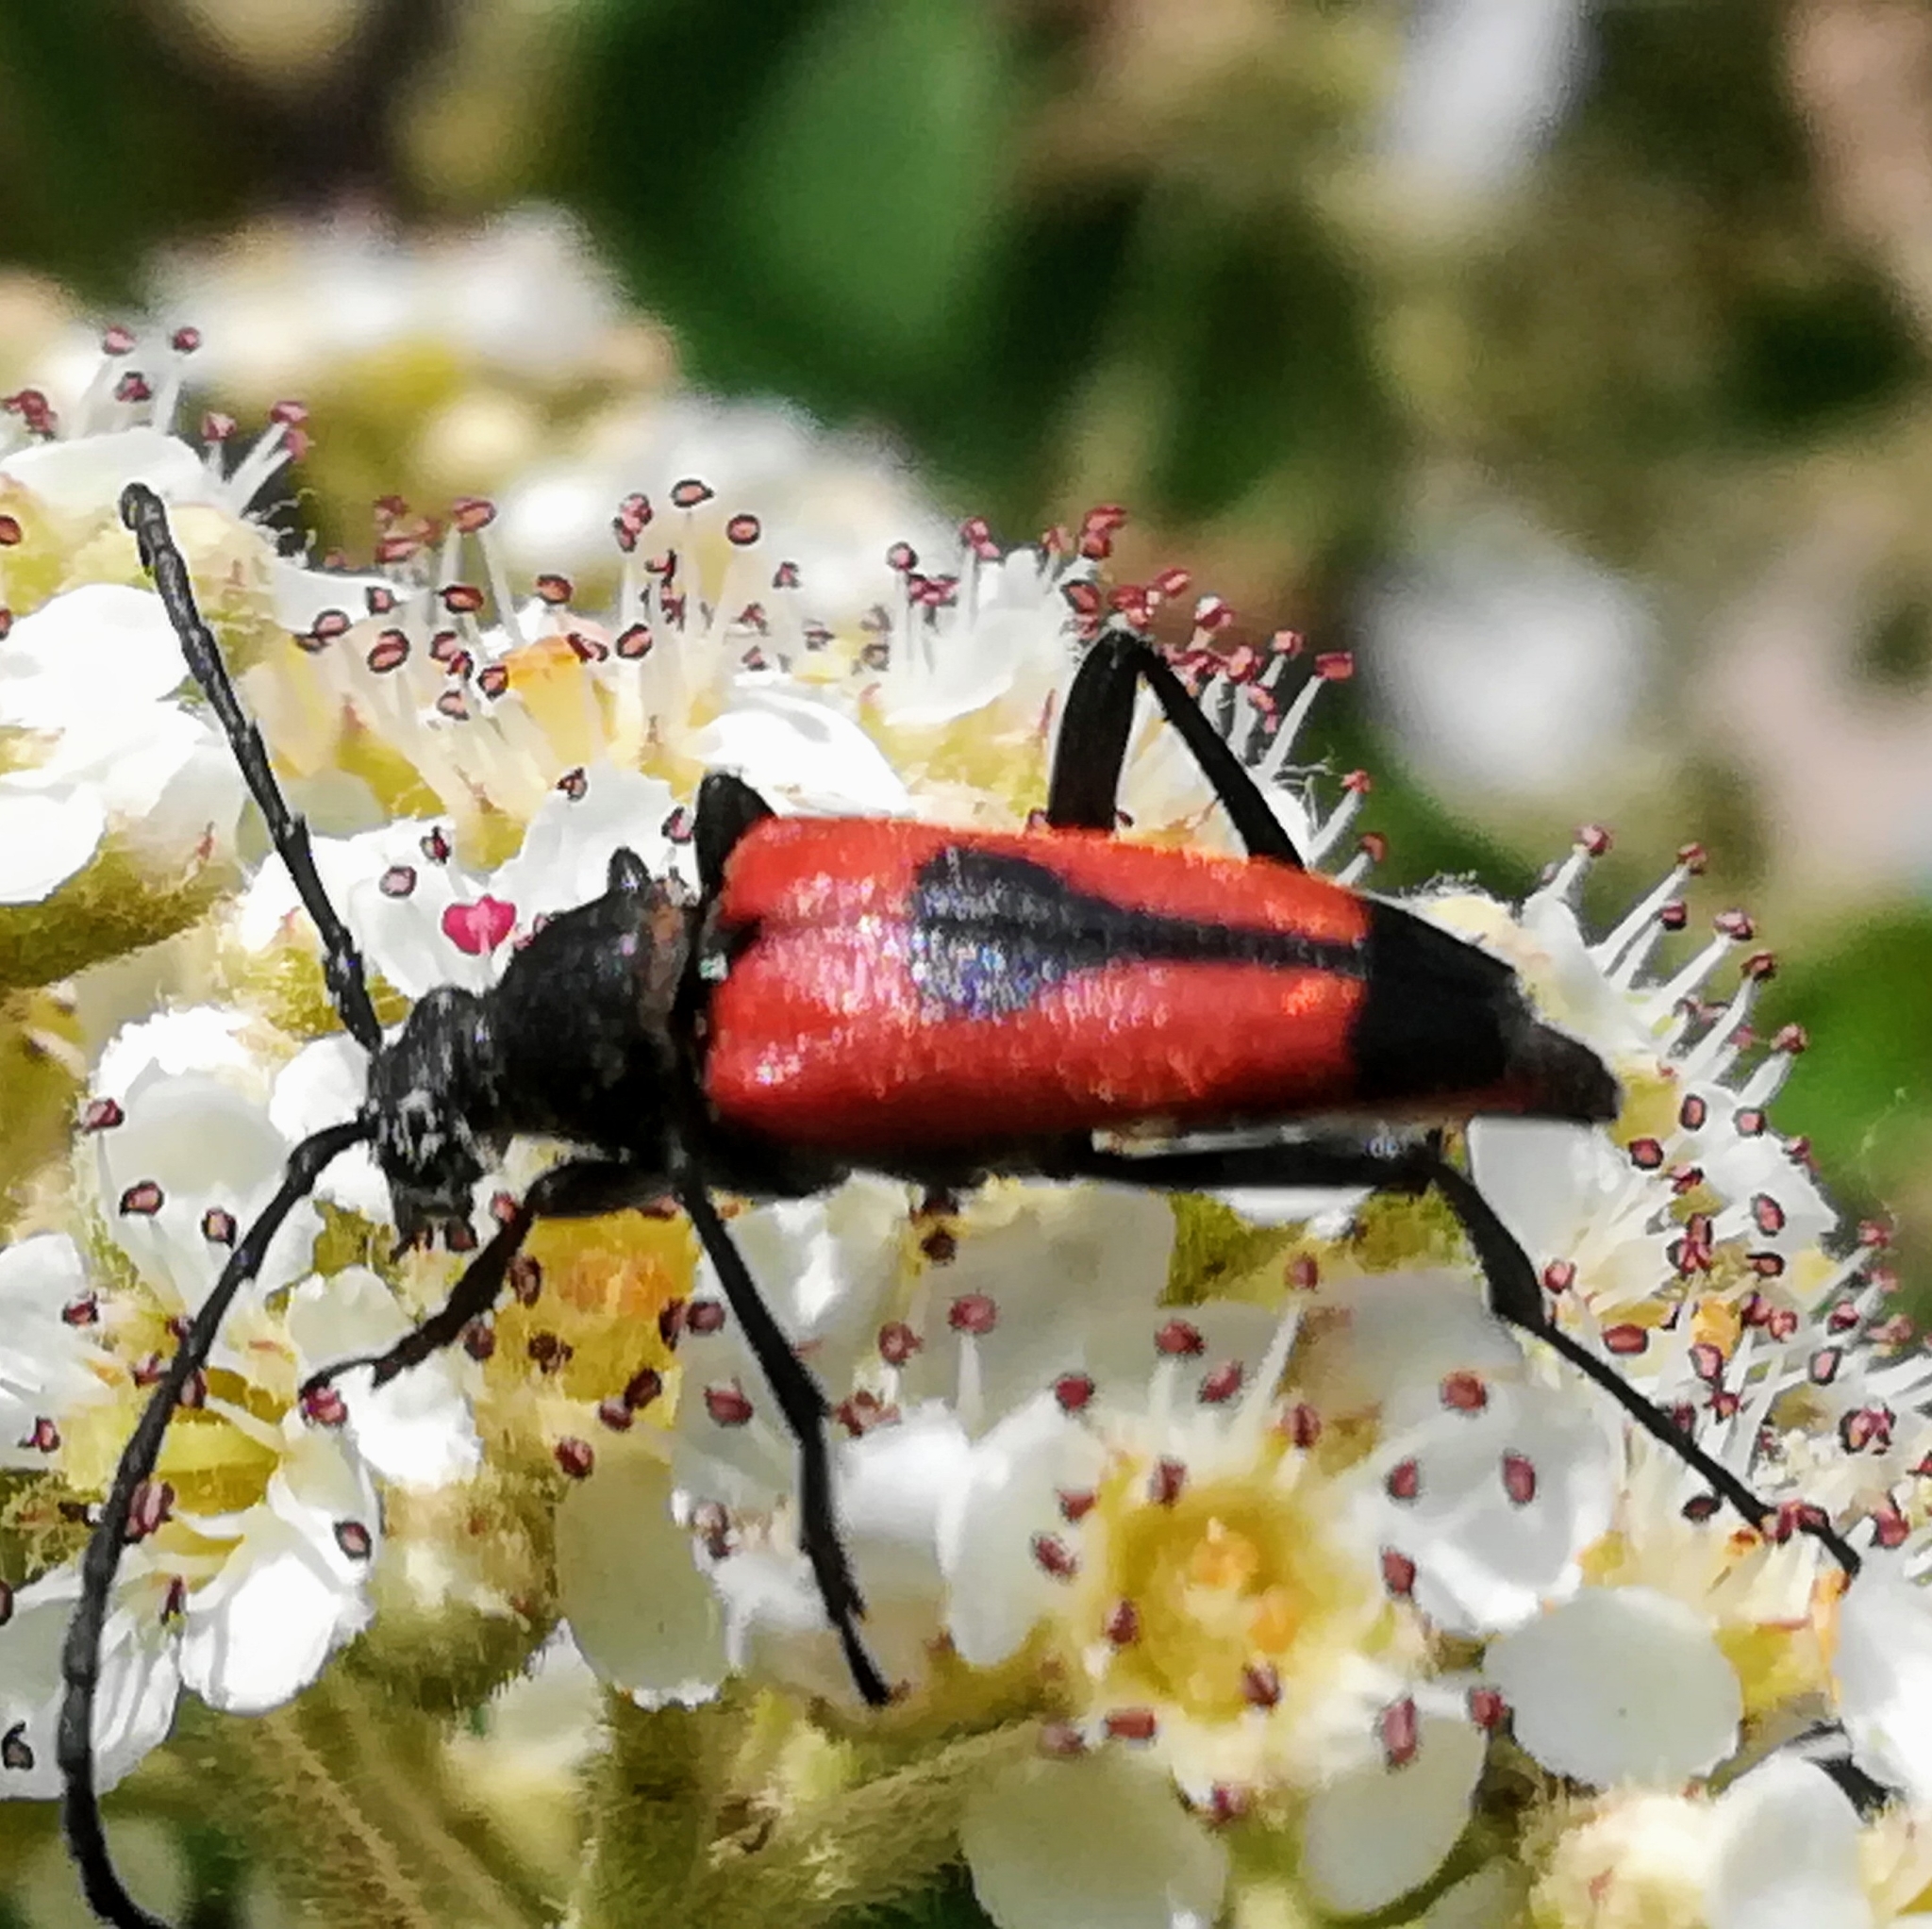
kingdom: Animalia
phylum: Arthropoda
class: Insecta
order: Coleoptera
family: Cerambycidae
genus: Stictoleptura
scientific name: Stictoleptura cordigera
